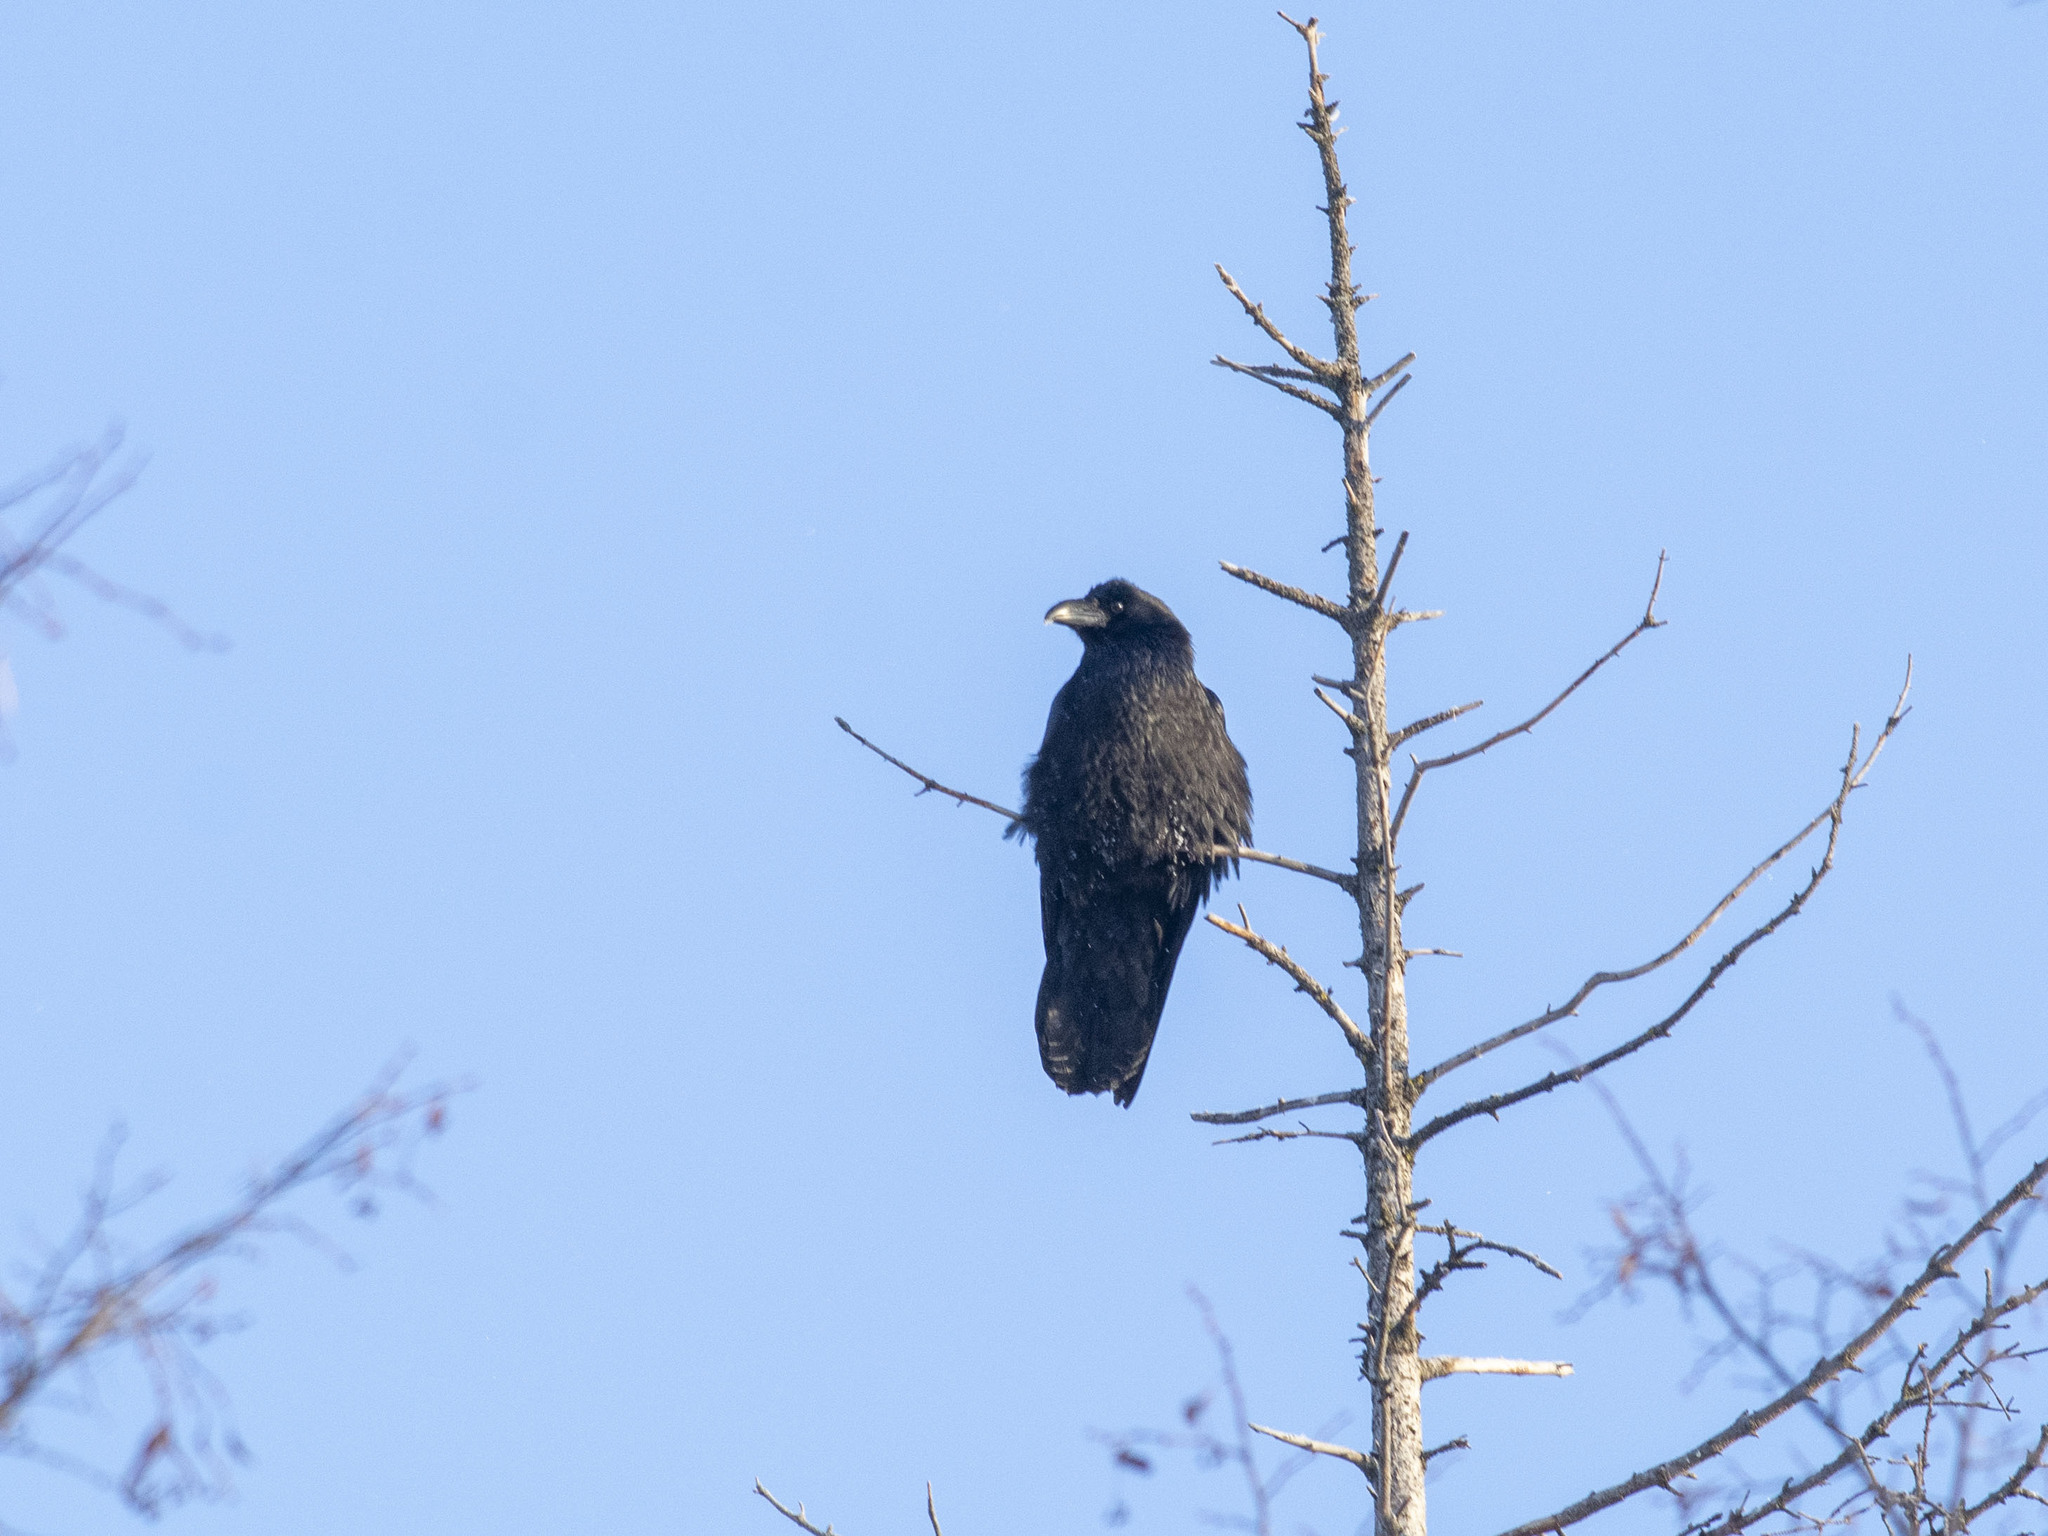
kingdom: Animalia
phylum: Chordata
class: Aves
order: Passeriformes
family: Corvidae
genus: Corvus
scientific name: Corvus corax
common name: Common raven
